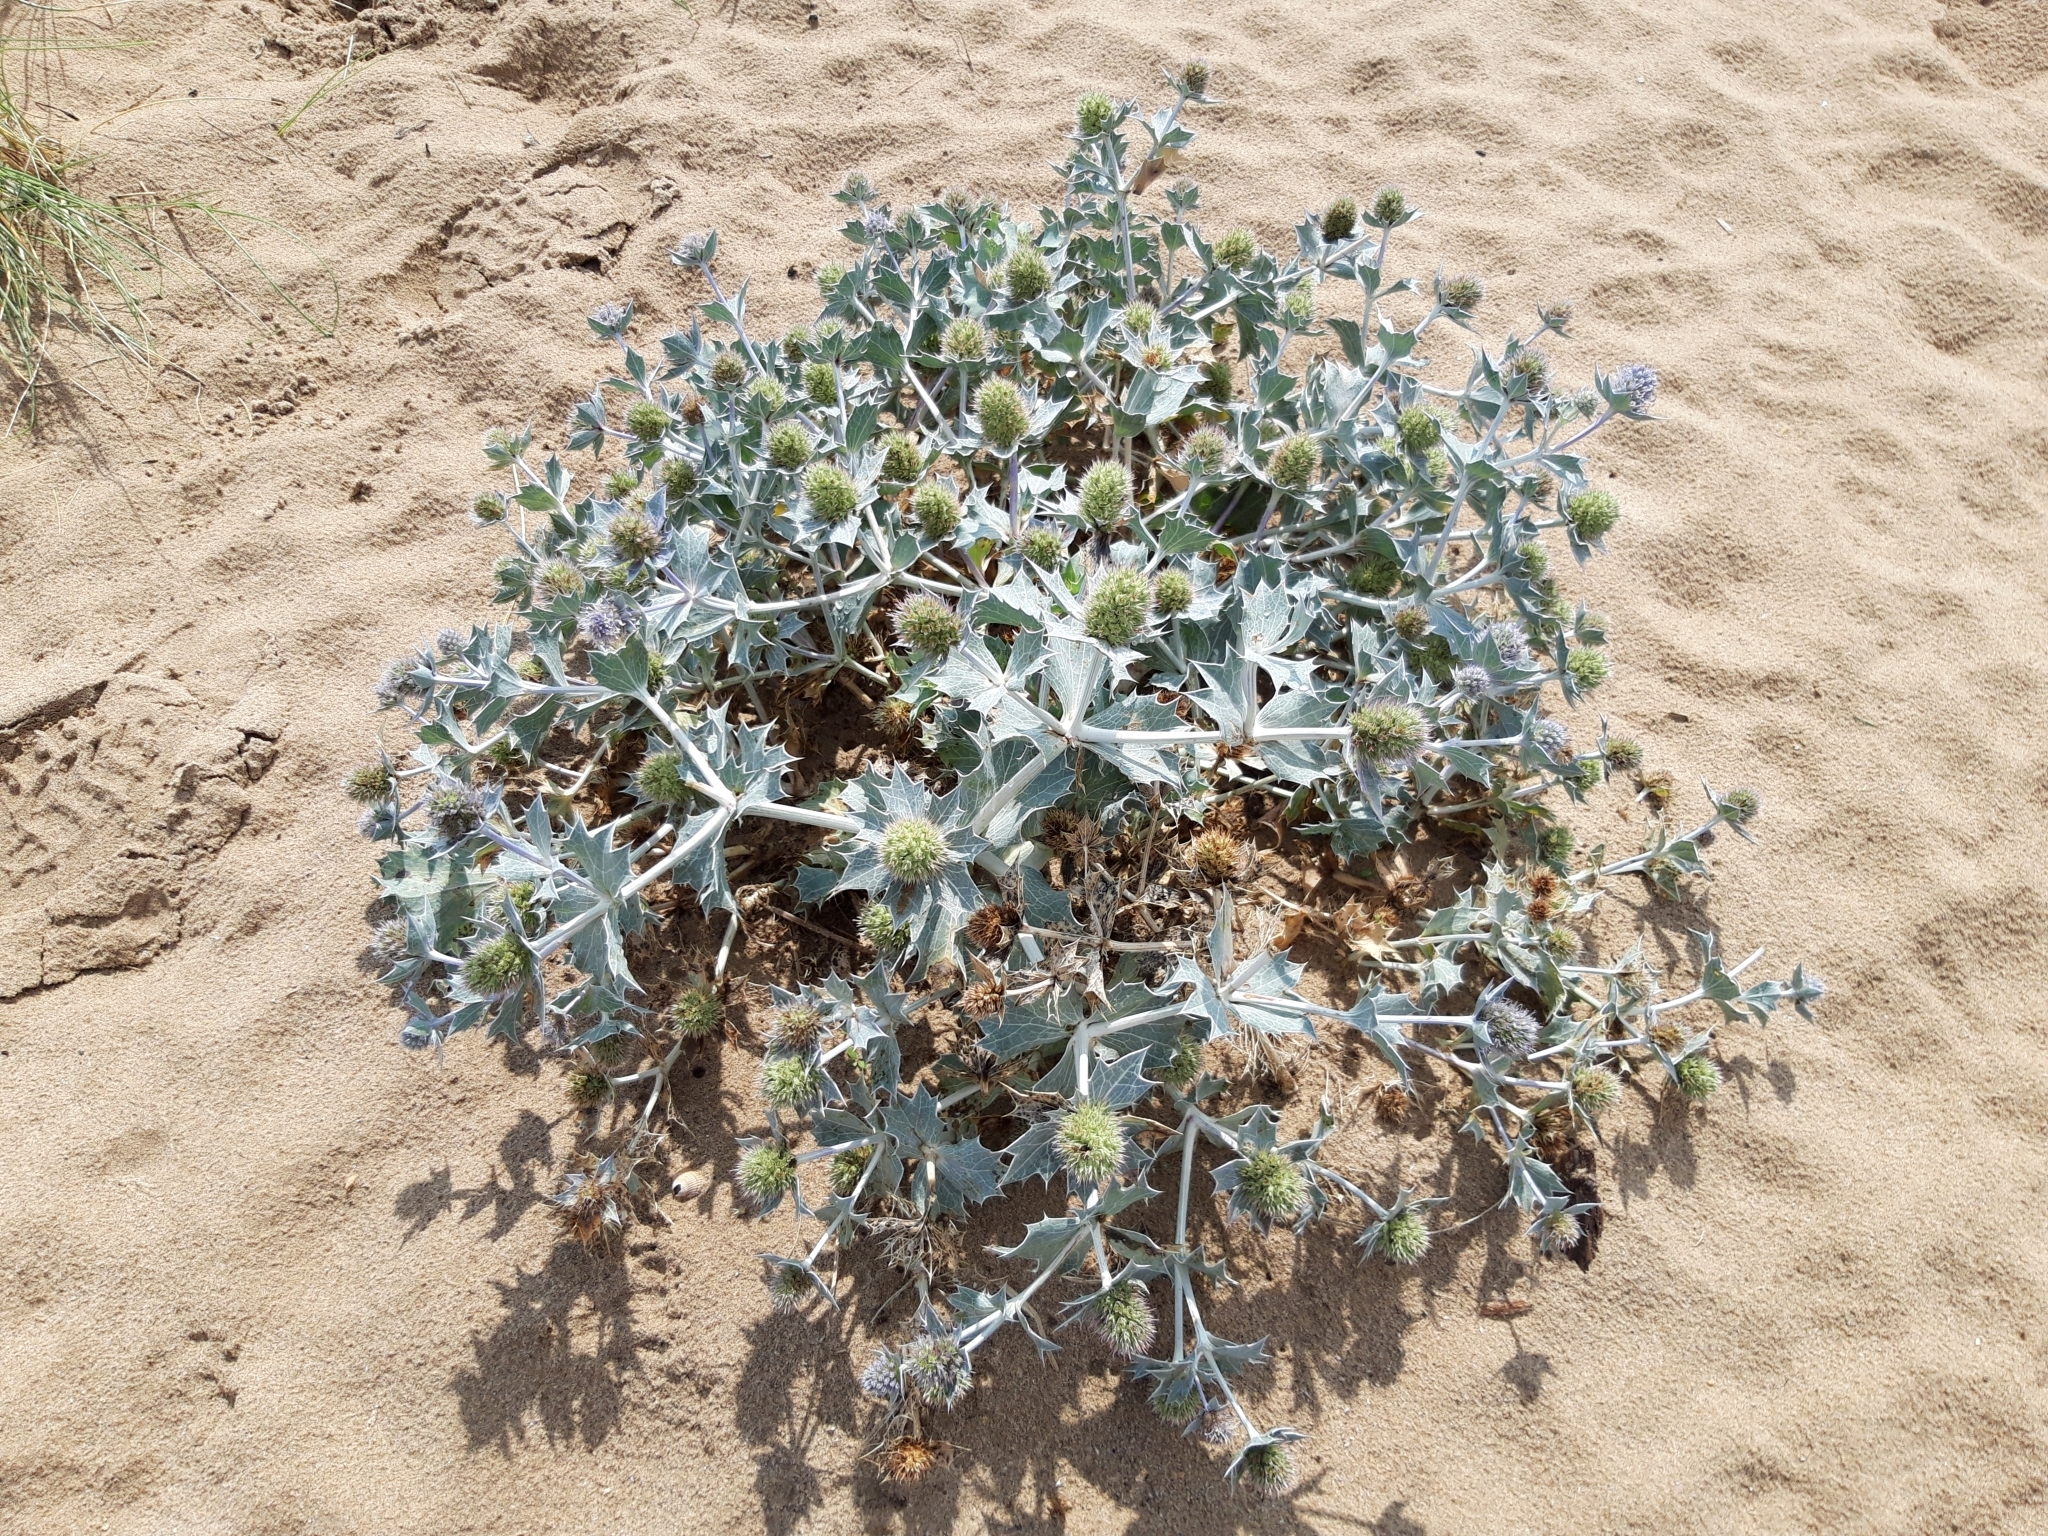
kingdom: Plantae
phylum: Tracheophyta
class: Magnoliopsida
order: Apiales
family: Apiaceae
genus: Eryngium
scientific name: Eryngium maritimum
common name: Sea-holly
